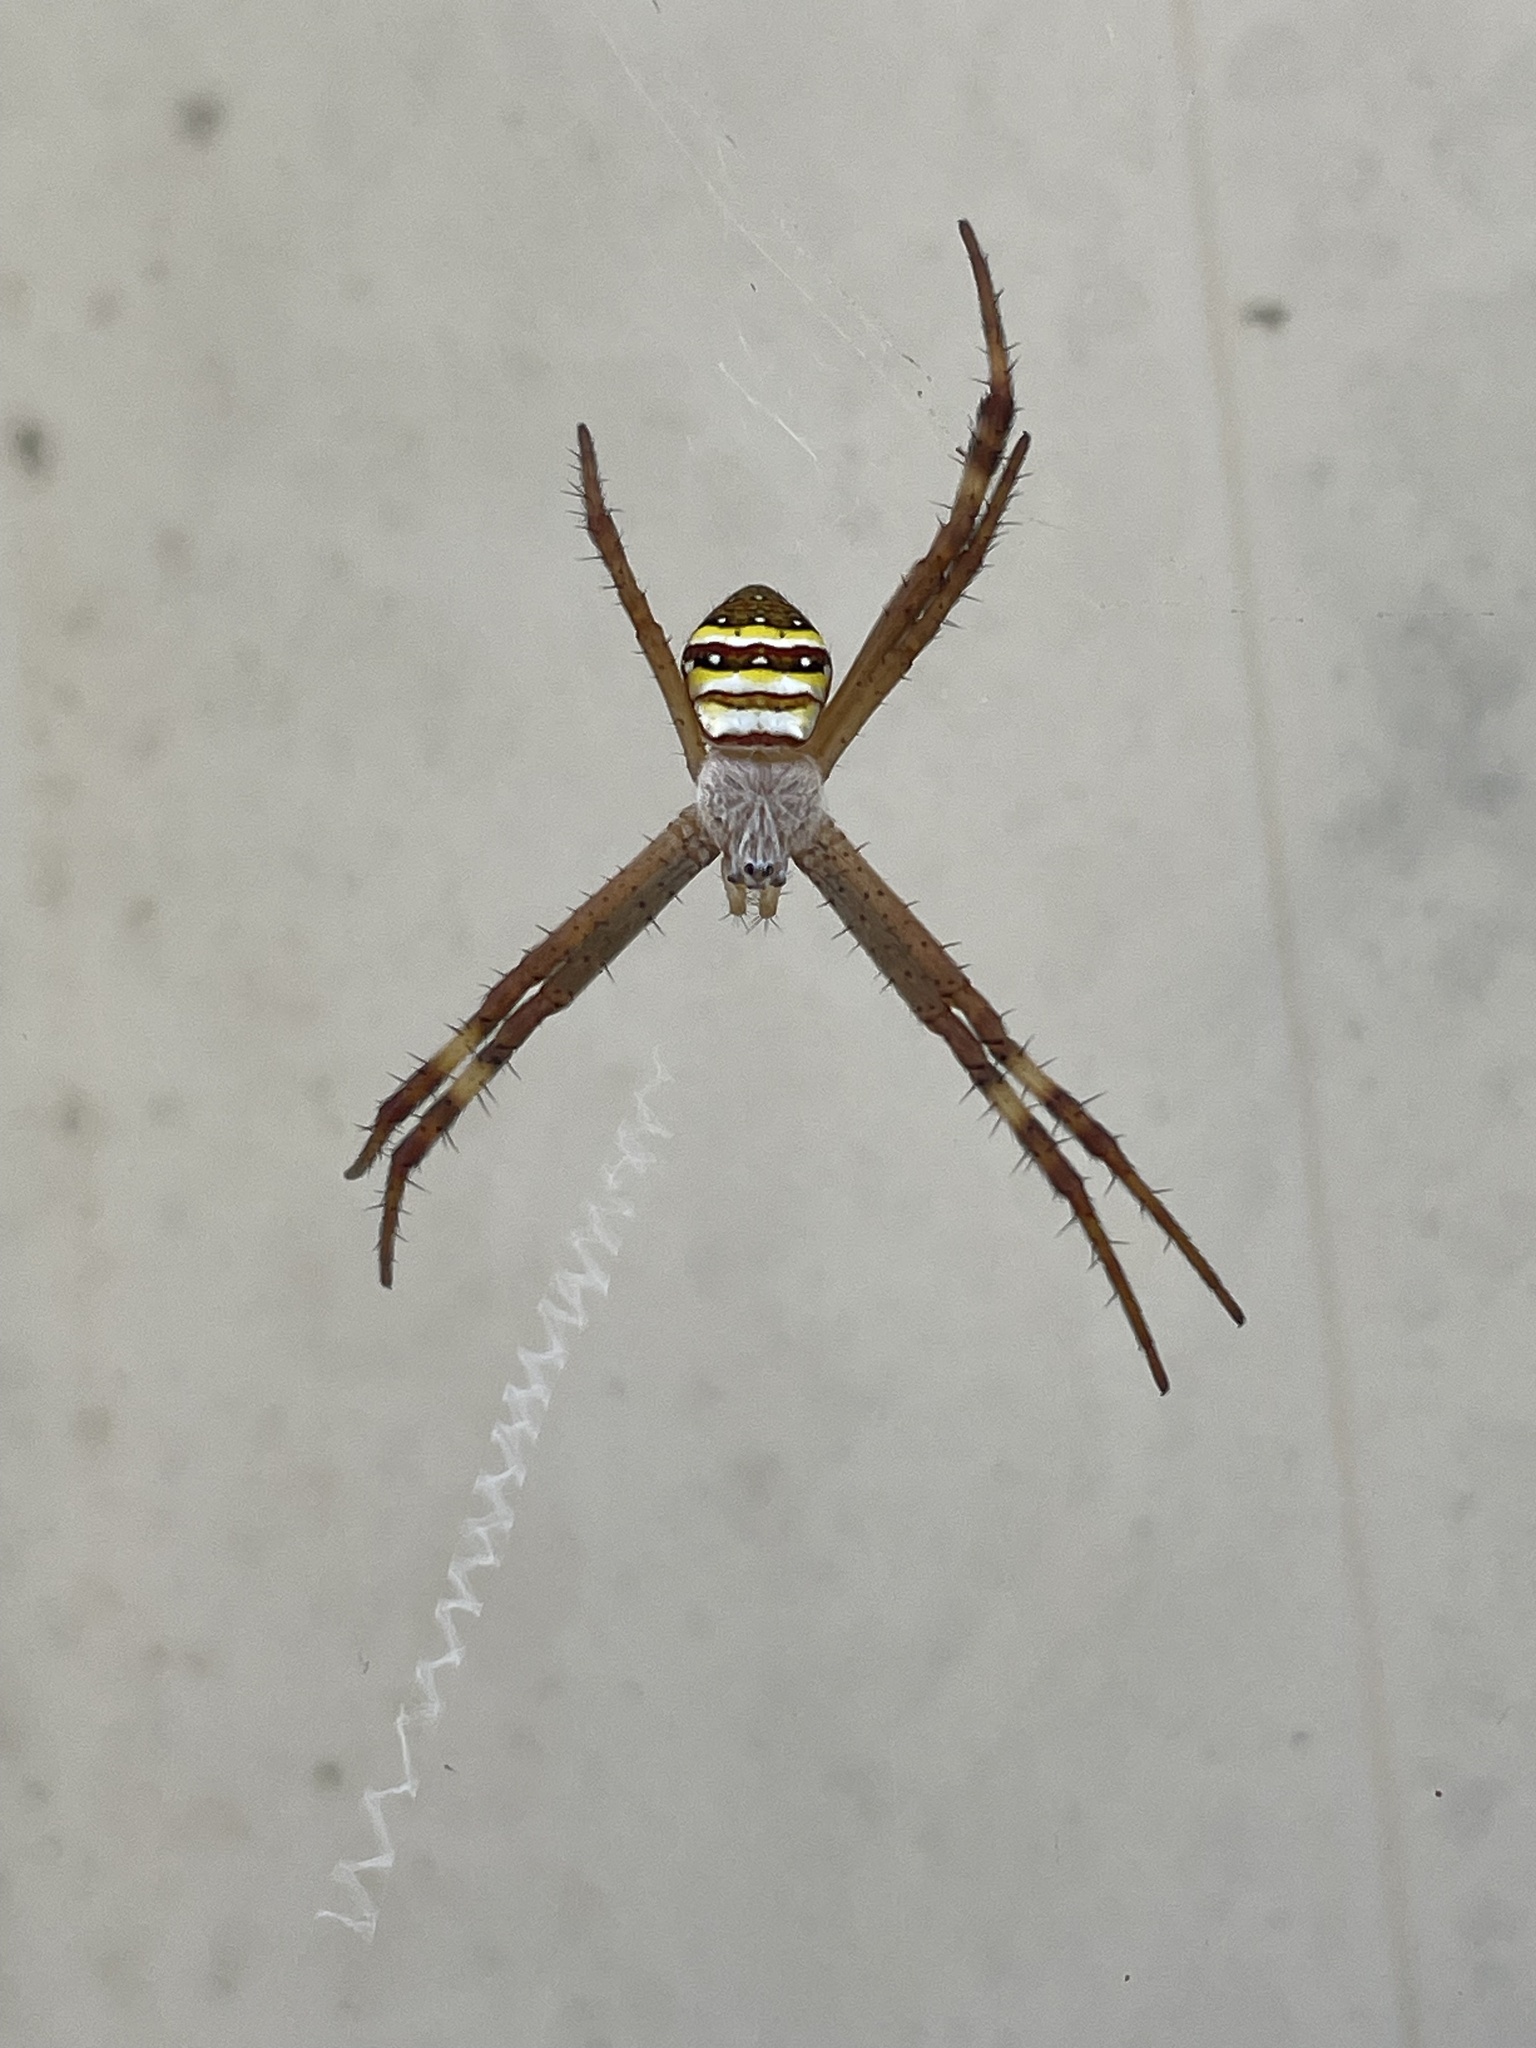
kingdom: Animalia
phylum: Arthropoda
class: Arachnida
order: Araneae
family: Araneidae
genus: Argiope
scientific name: Argiope keyserlingi
